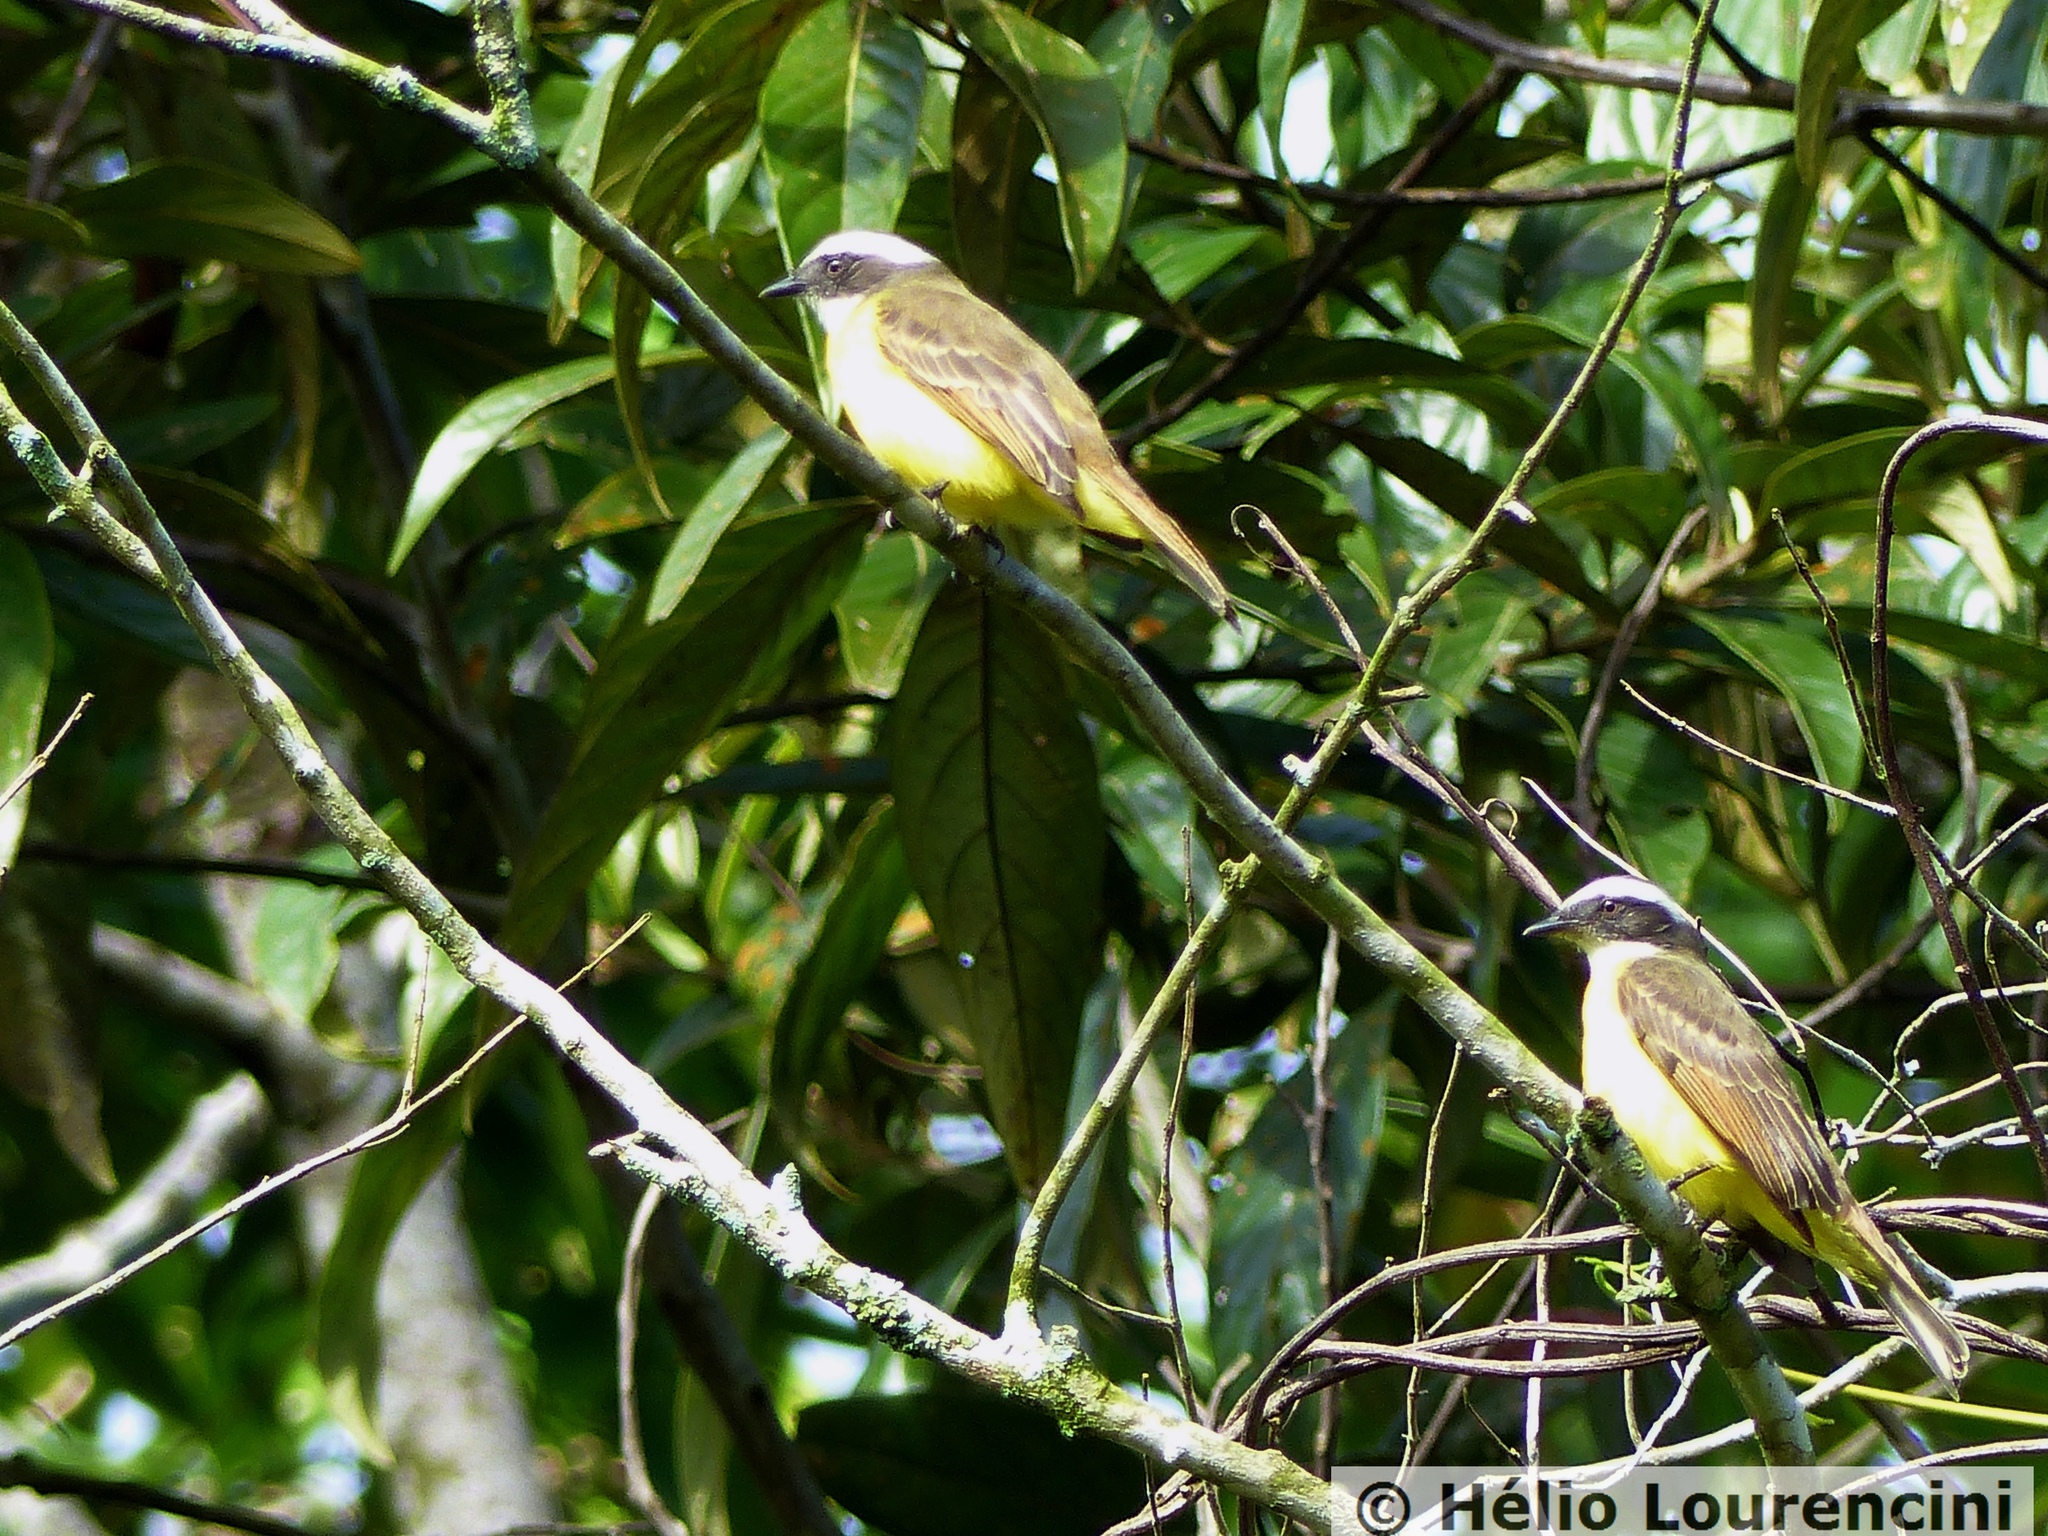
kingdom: Animalia
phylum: Chordata
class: Aves
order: Passeriformes
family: Tyrannidae
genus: Myiozetetes
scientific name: Myiozetetes similis
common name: Social flycatcher
